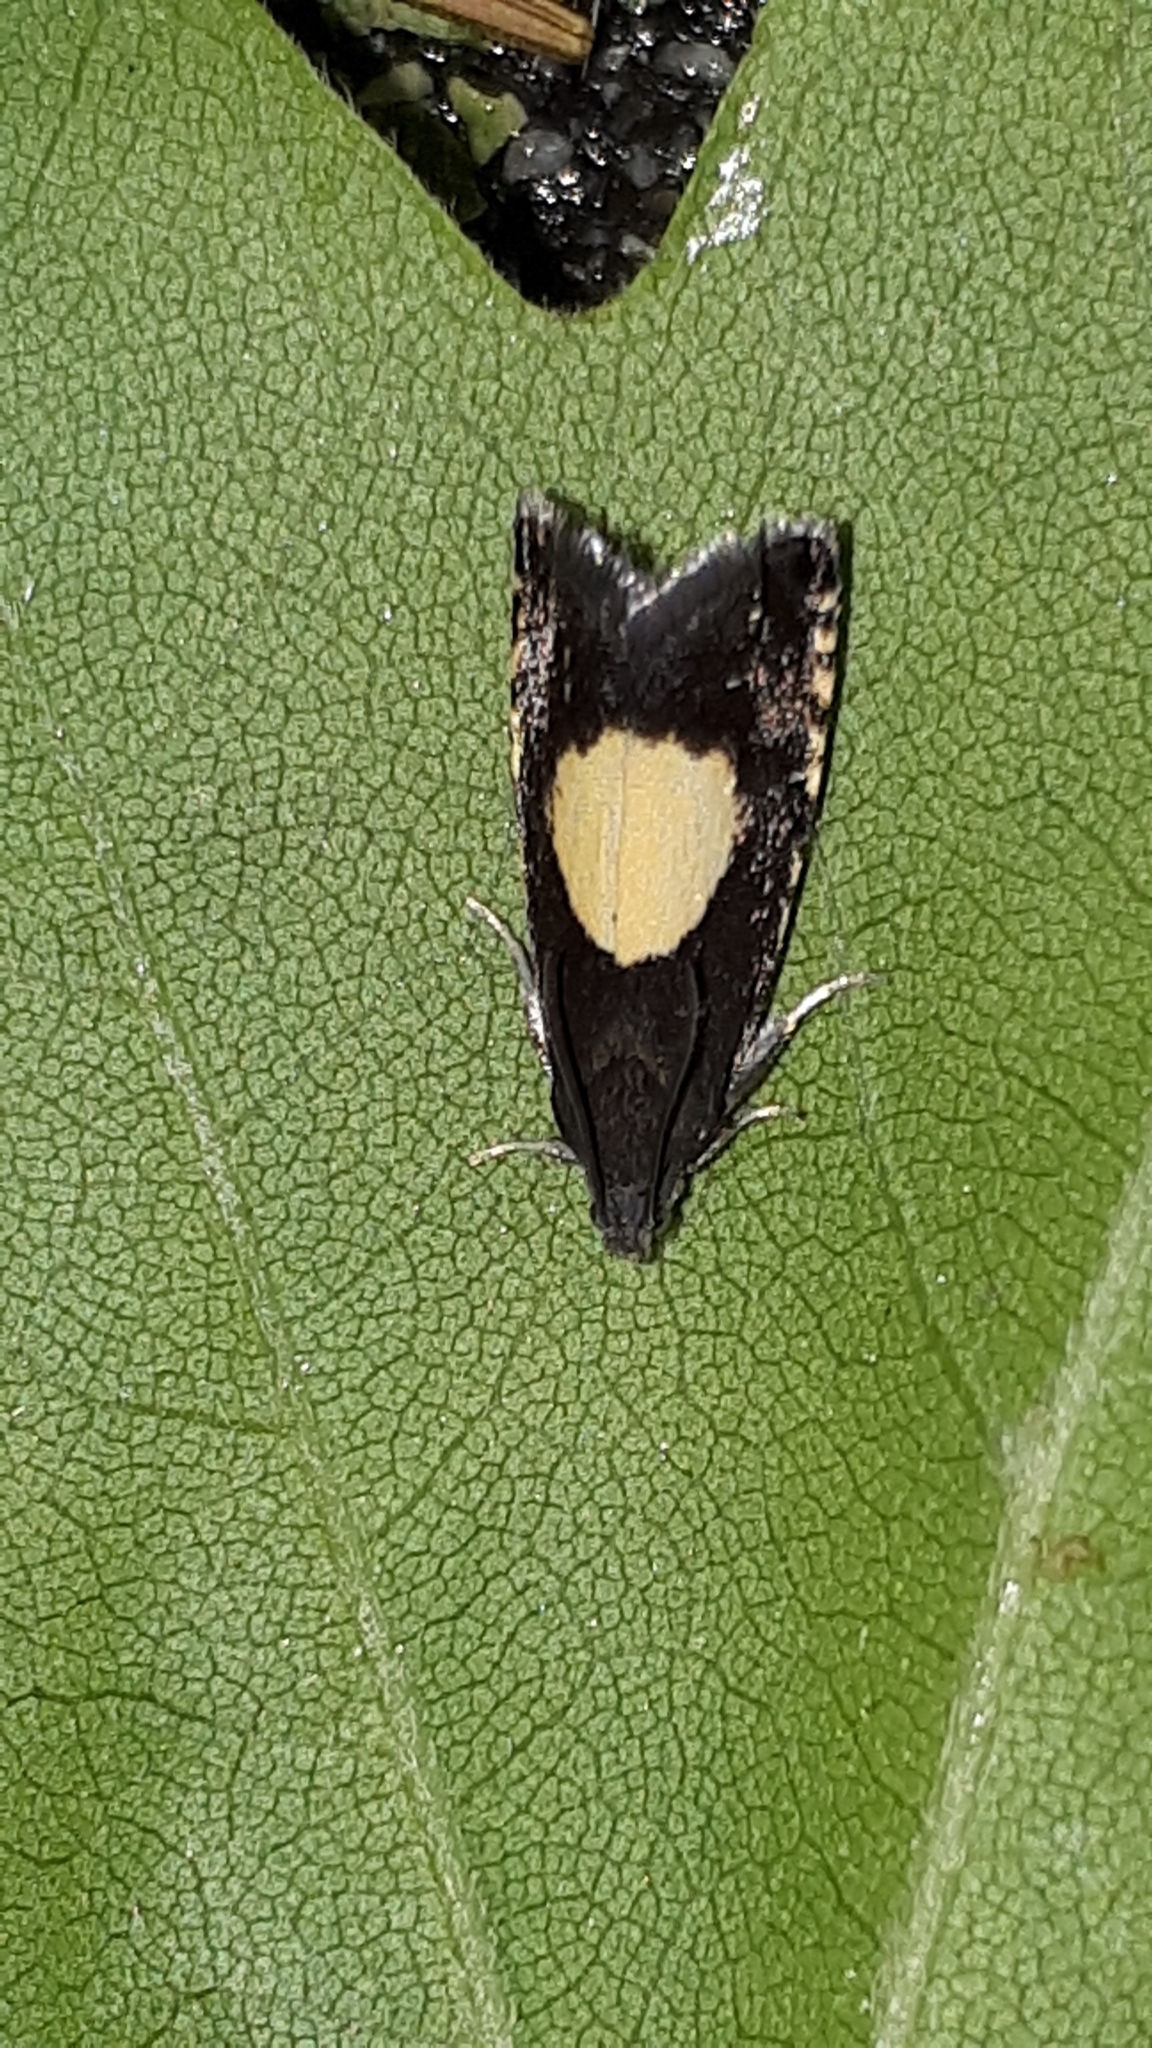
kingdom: Animalia
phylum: Arthropoda
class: Insecta
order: Lepidoptera
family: Tortricidae
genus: Pammene
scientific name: Pammene regiana
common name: Regal piercer
